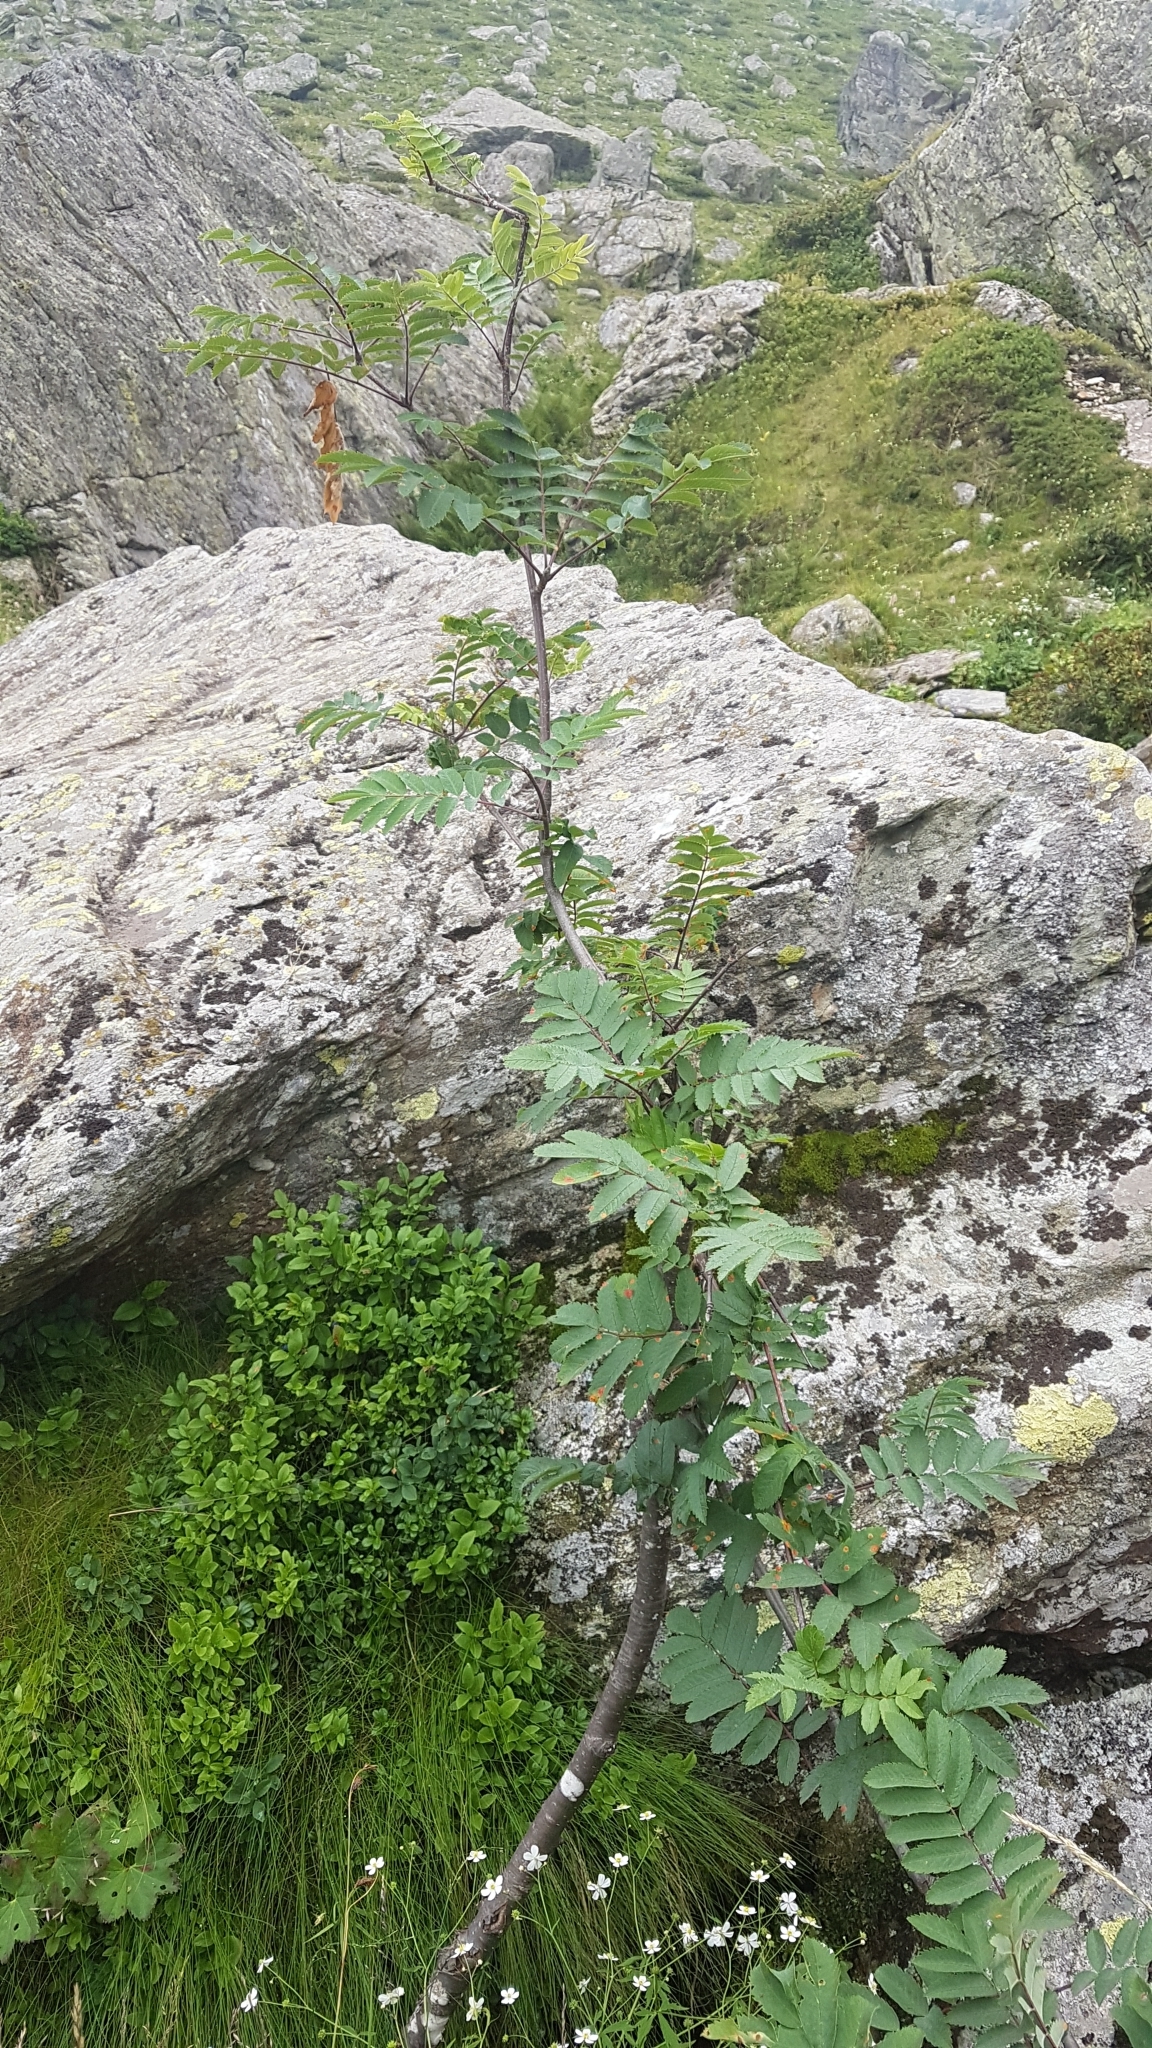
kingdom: Plantae
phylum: Tracheophyta
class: Magnoliopsida
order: Rosales
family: Rosaceae
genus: Sorbus
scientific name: Sorbus aucuparia
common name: Rowan
